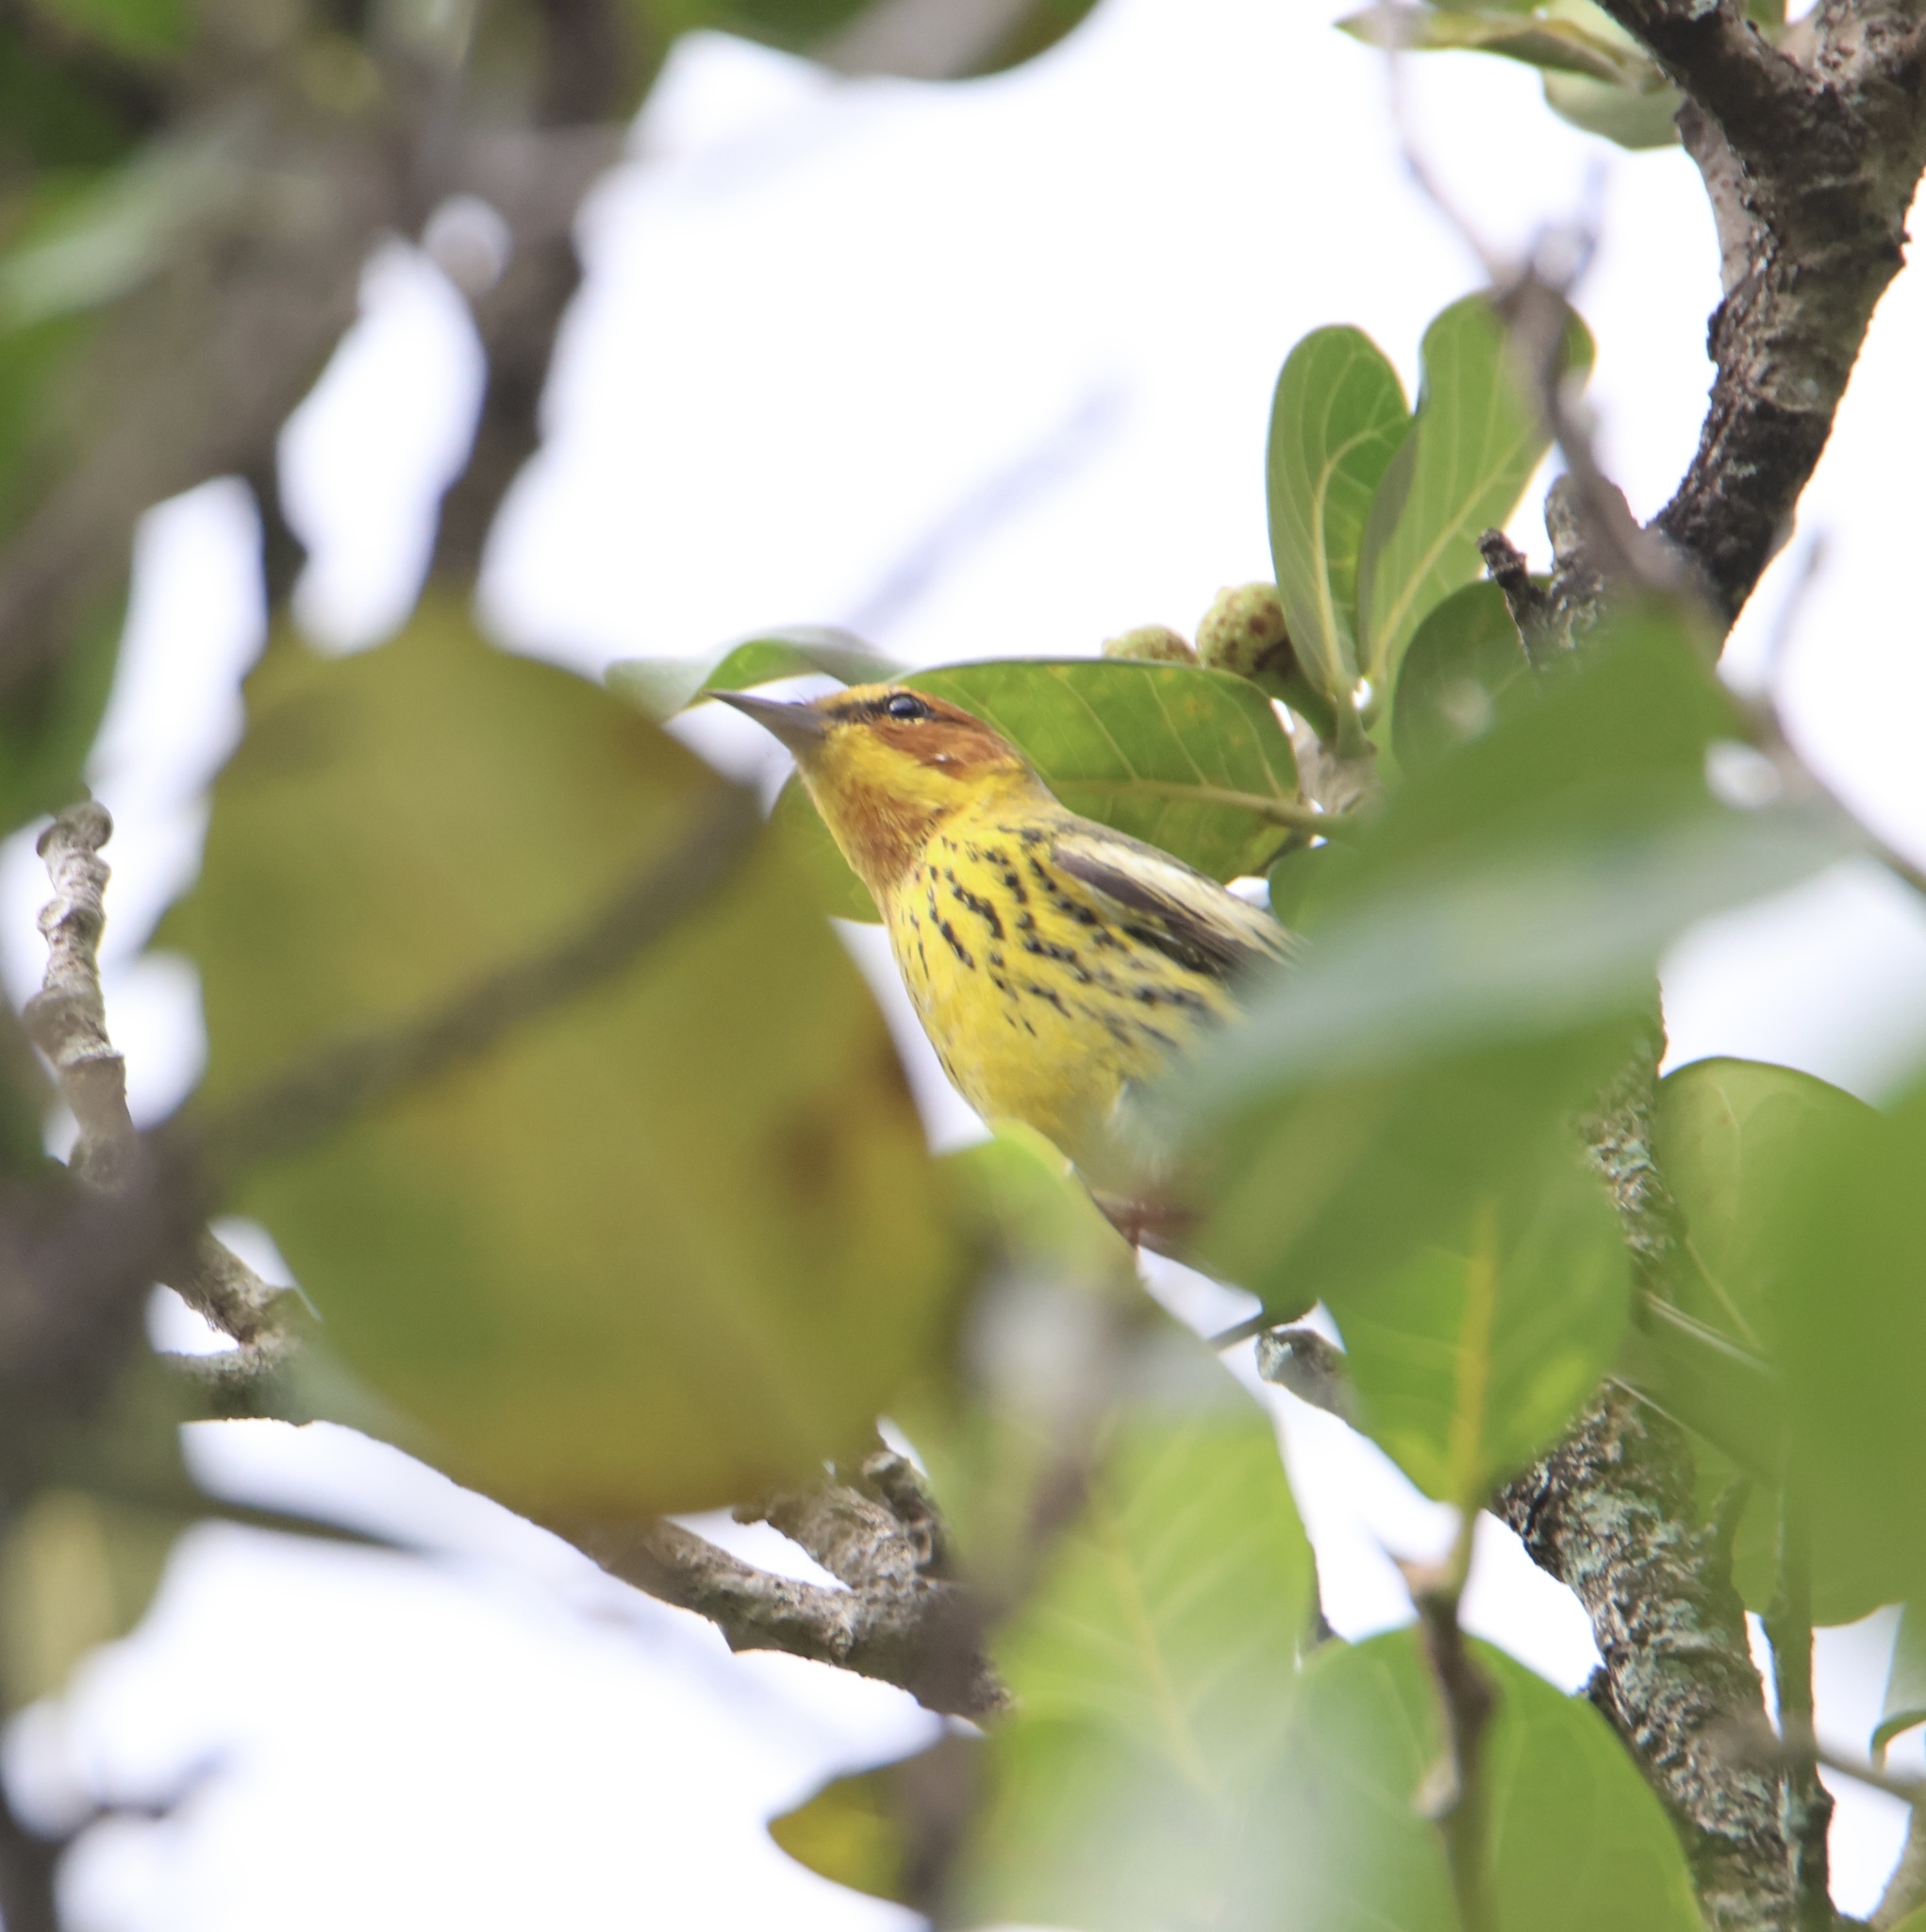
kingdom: Animalia
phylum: Chordata
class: Aves
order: Passeriformes
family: Parulidae
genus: Setophaga
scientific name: Setophaga tigrina
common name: Cape may warbler
